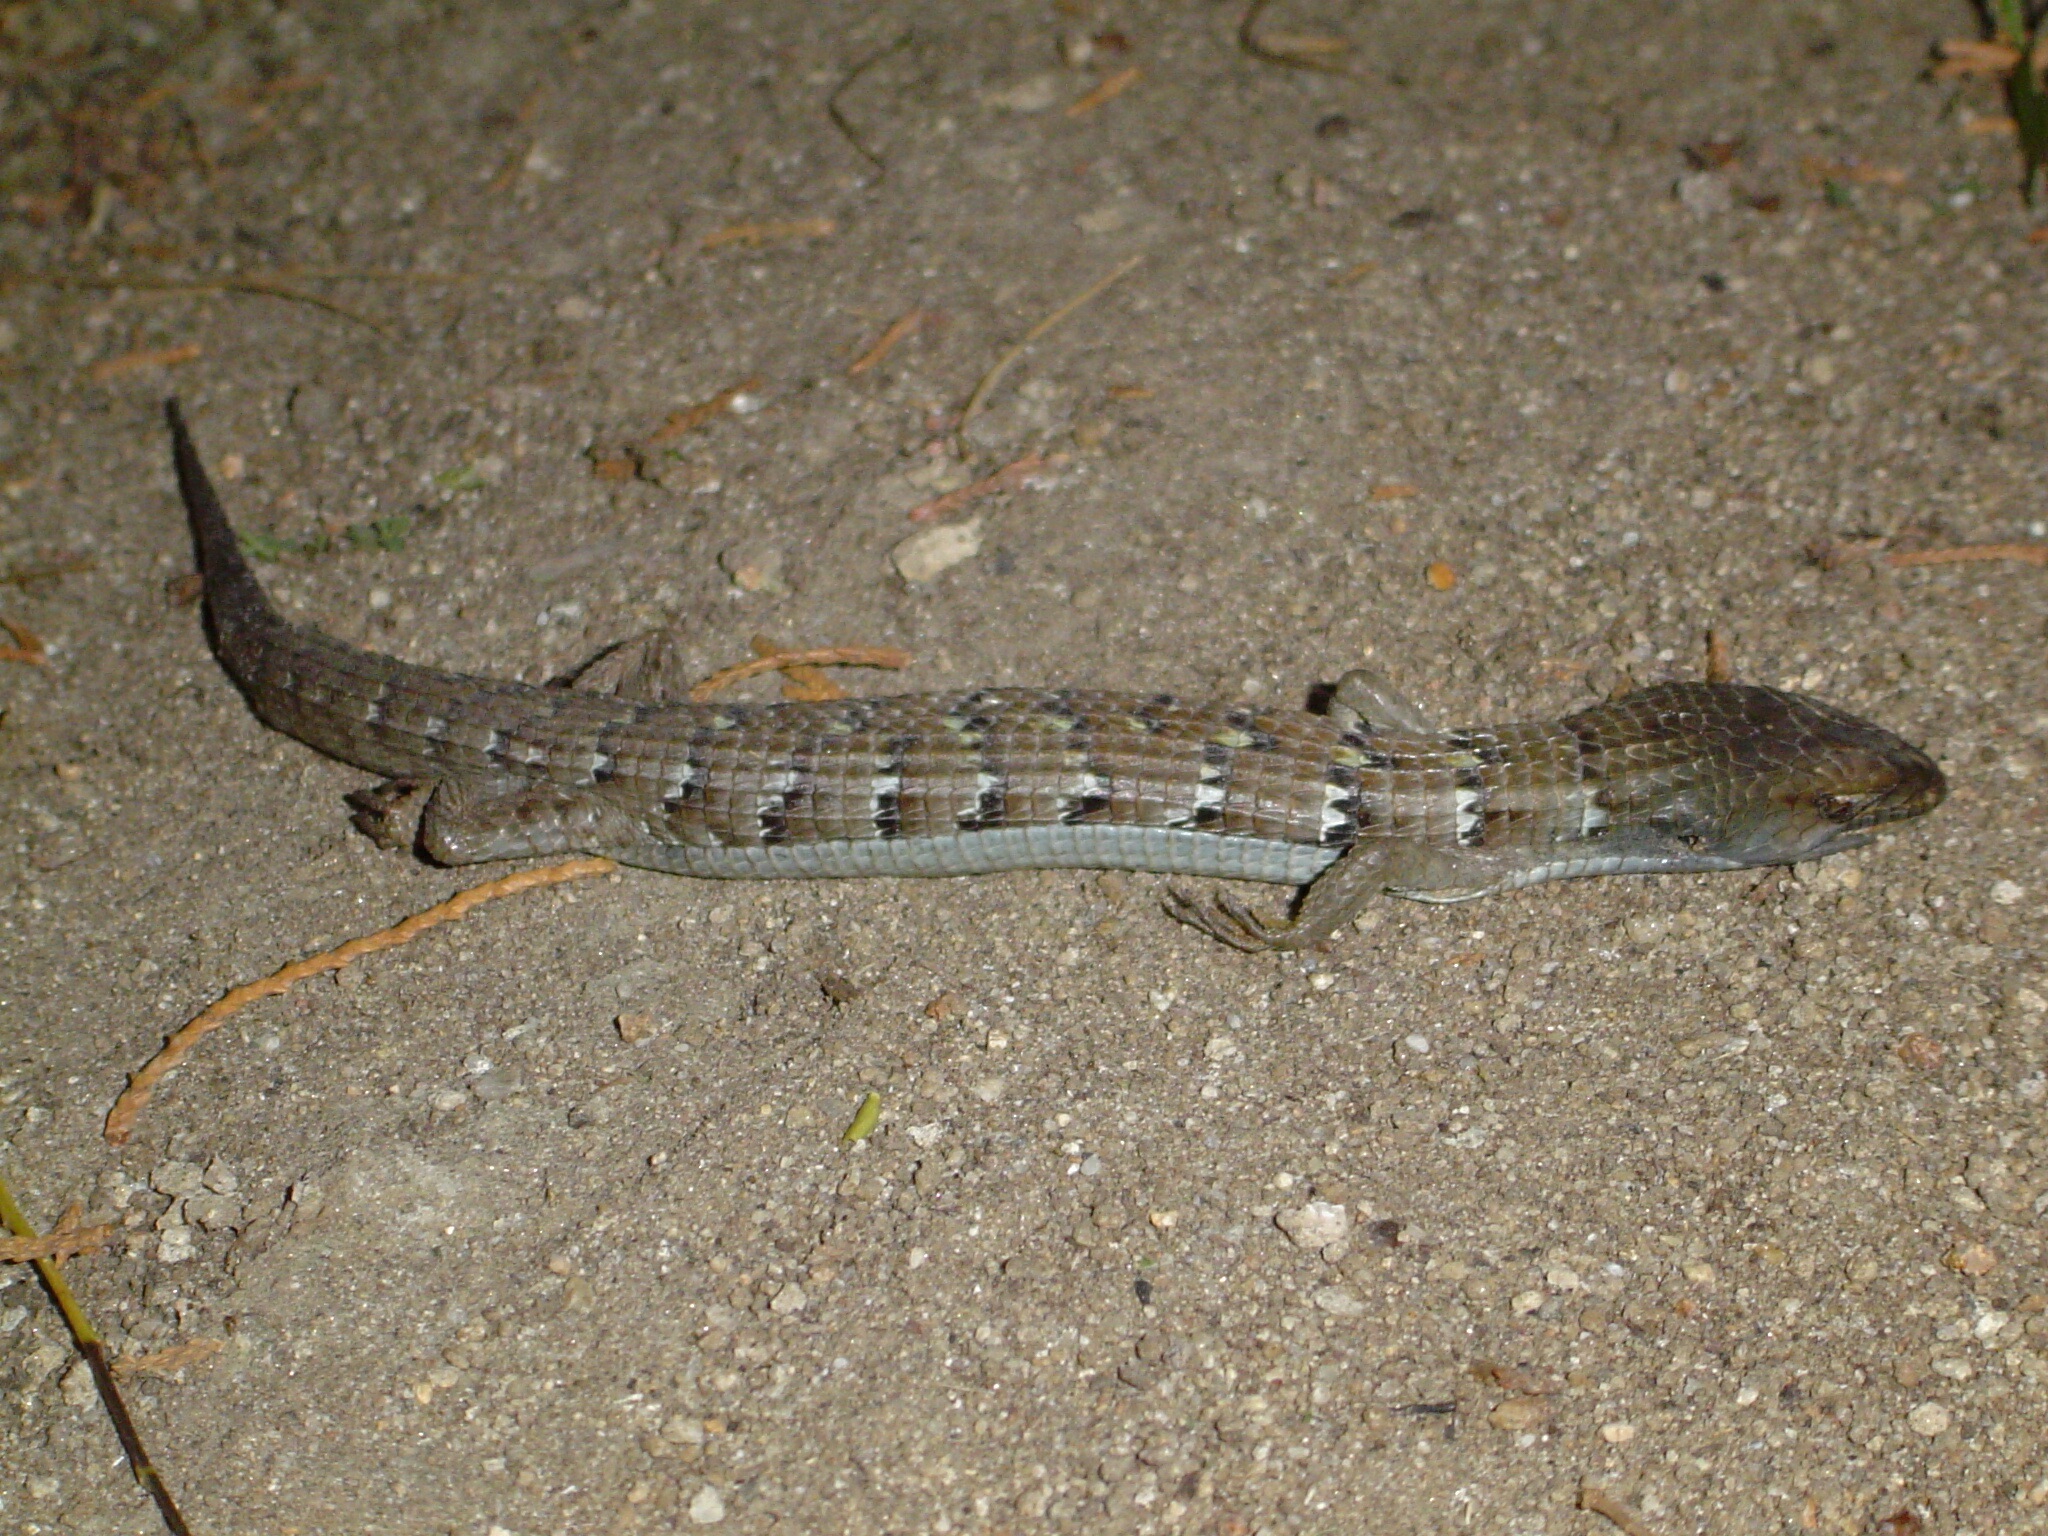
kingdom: Animalia
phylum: Chordata
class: Squamata
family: Anguidae
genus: Elgaria
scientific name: Elgaria multicarinata
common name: Southern alligator lizard
